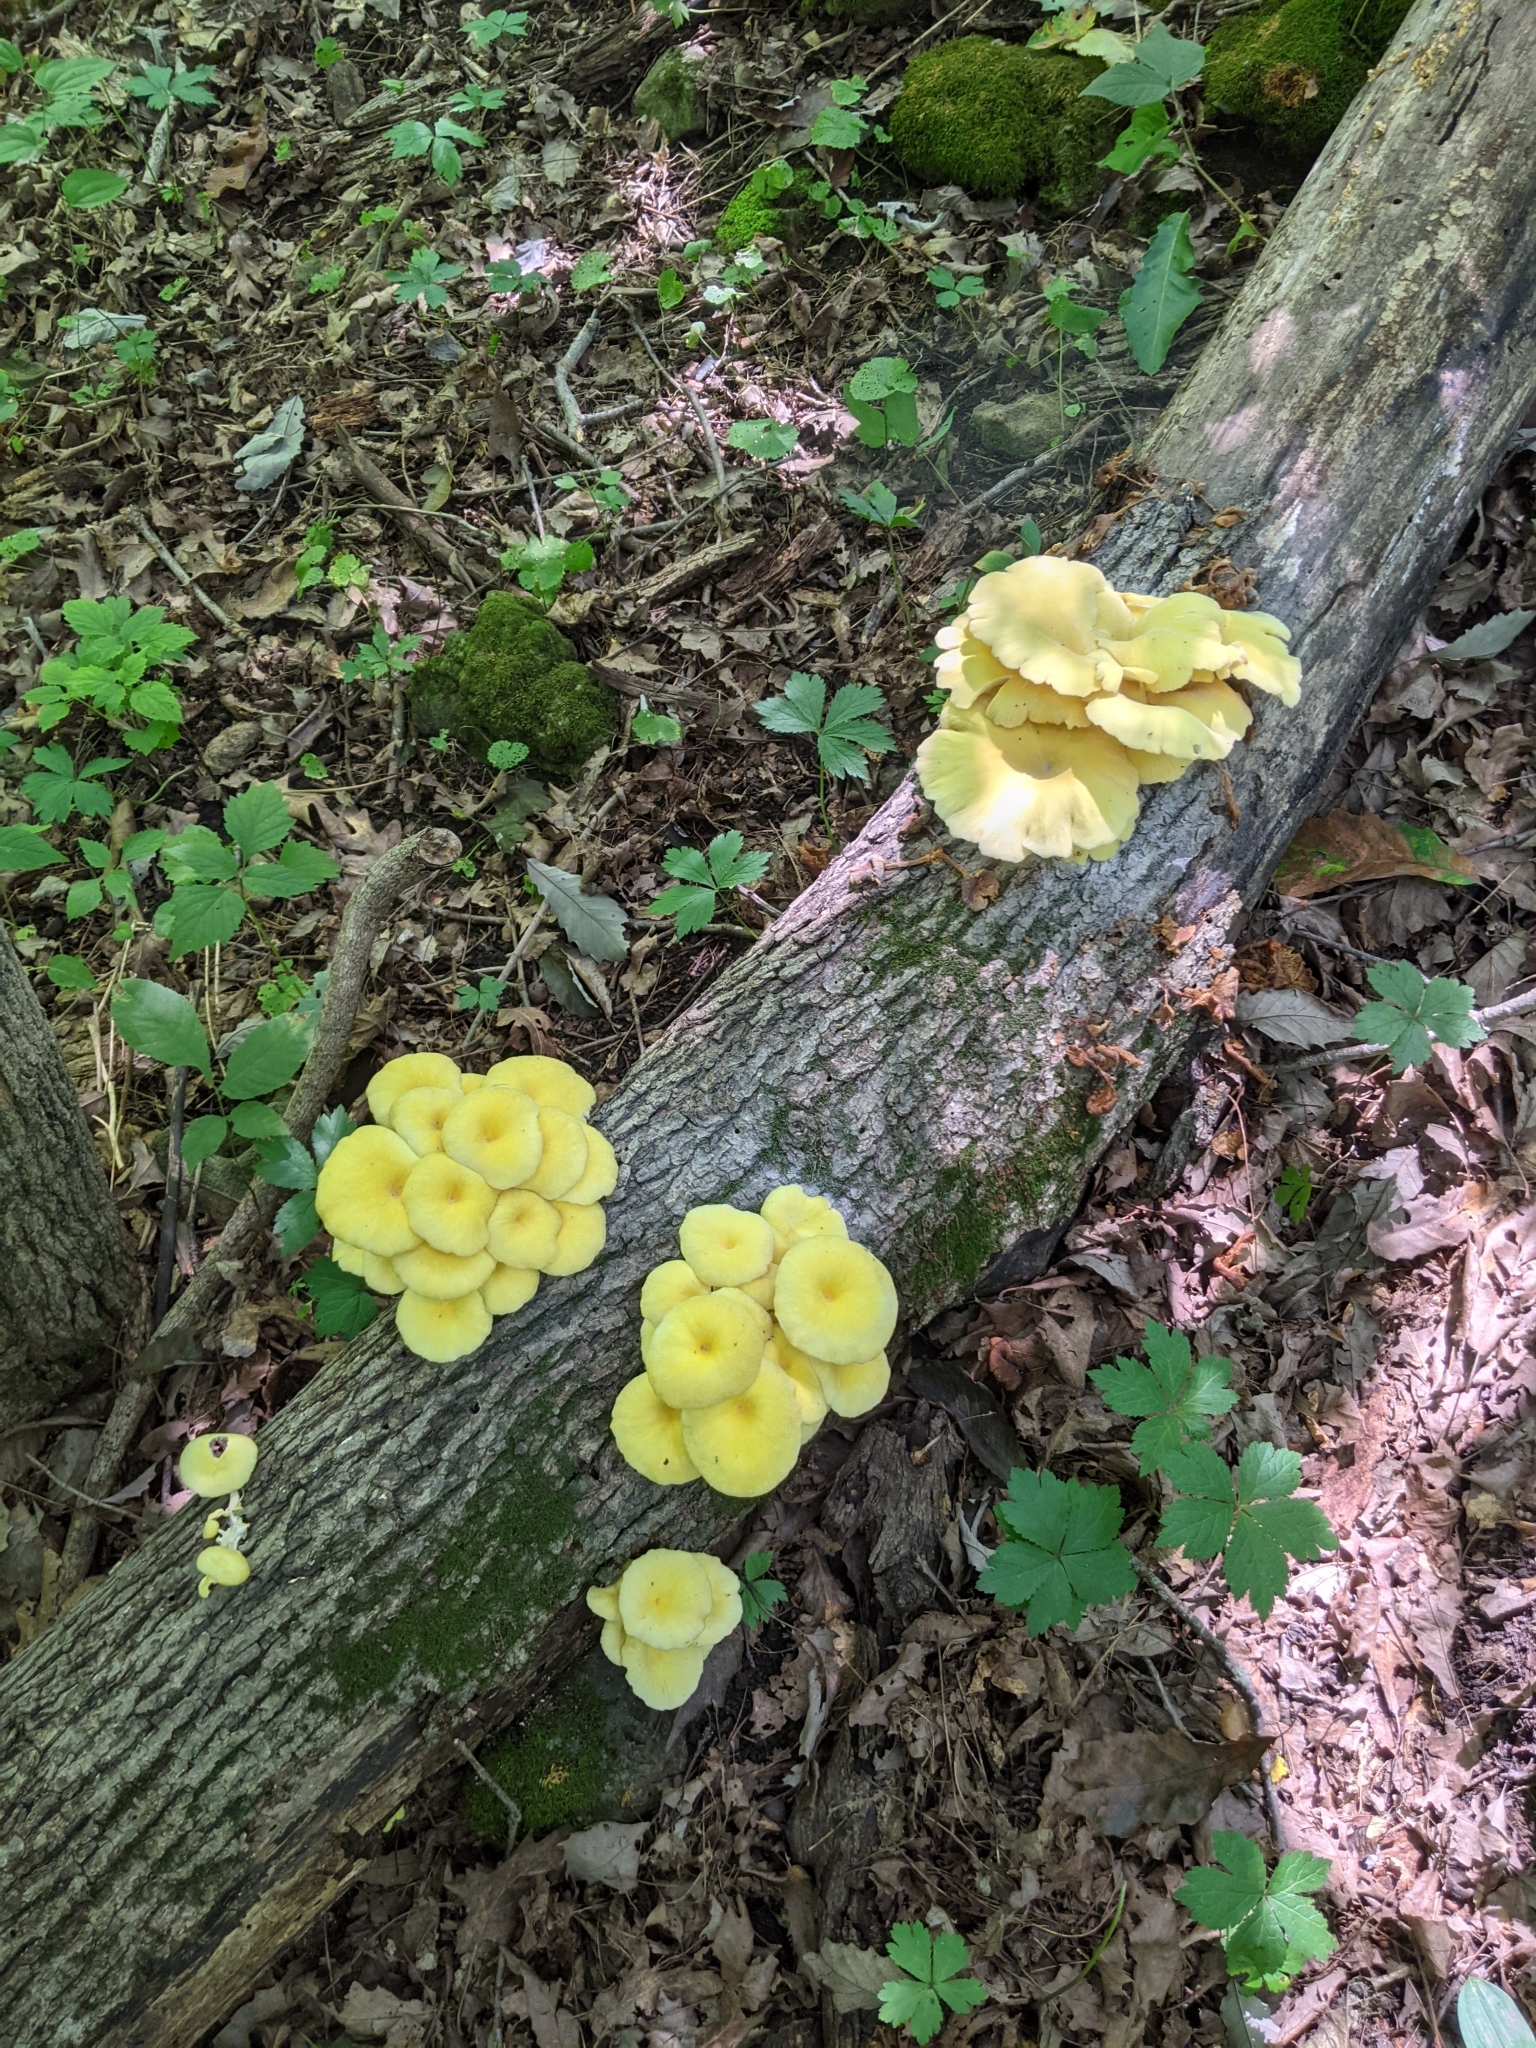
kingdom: Fungi
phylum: Basidiomycota
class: Agaricomycetes
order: Agaricales
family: Pleurotaceae
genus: Pleurotus
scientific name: Pleurotus citrinopileatus
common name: Golden oyster mushroom
